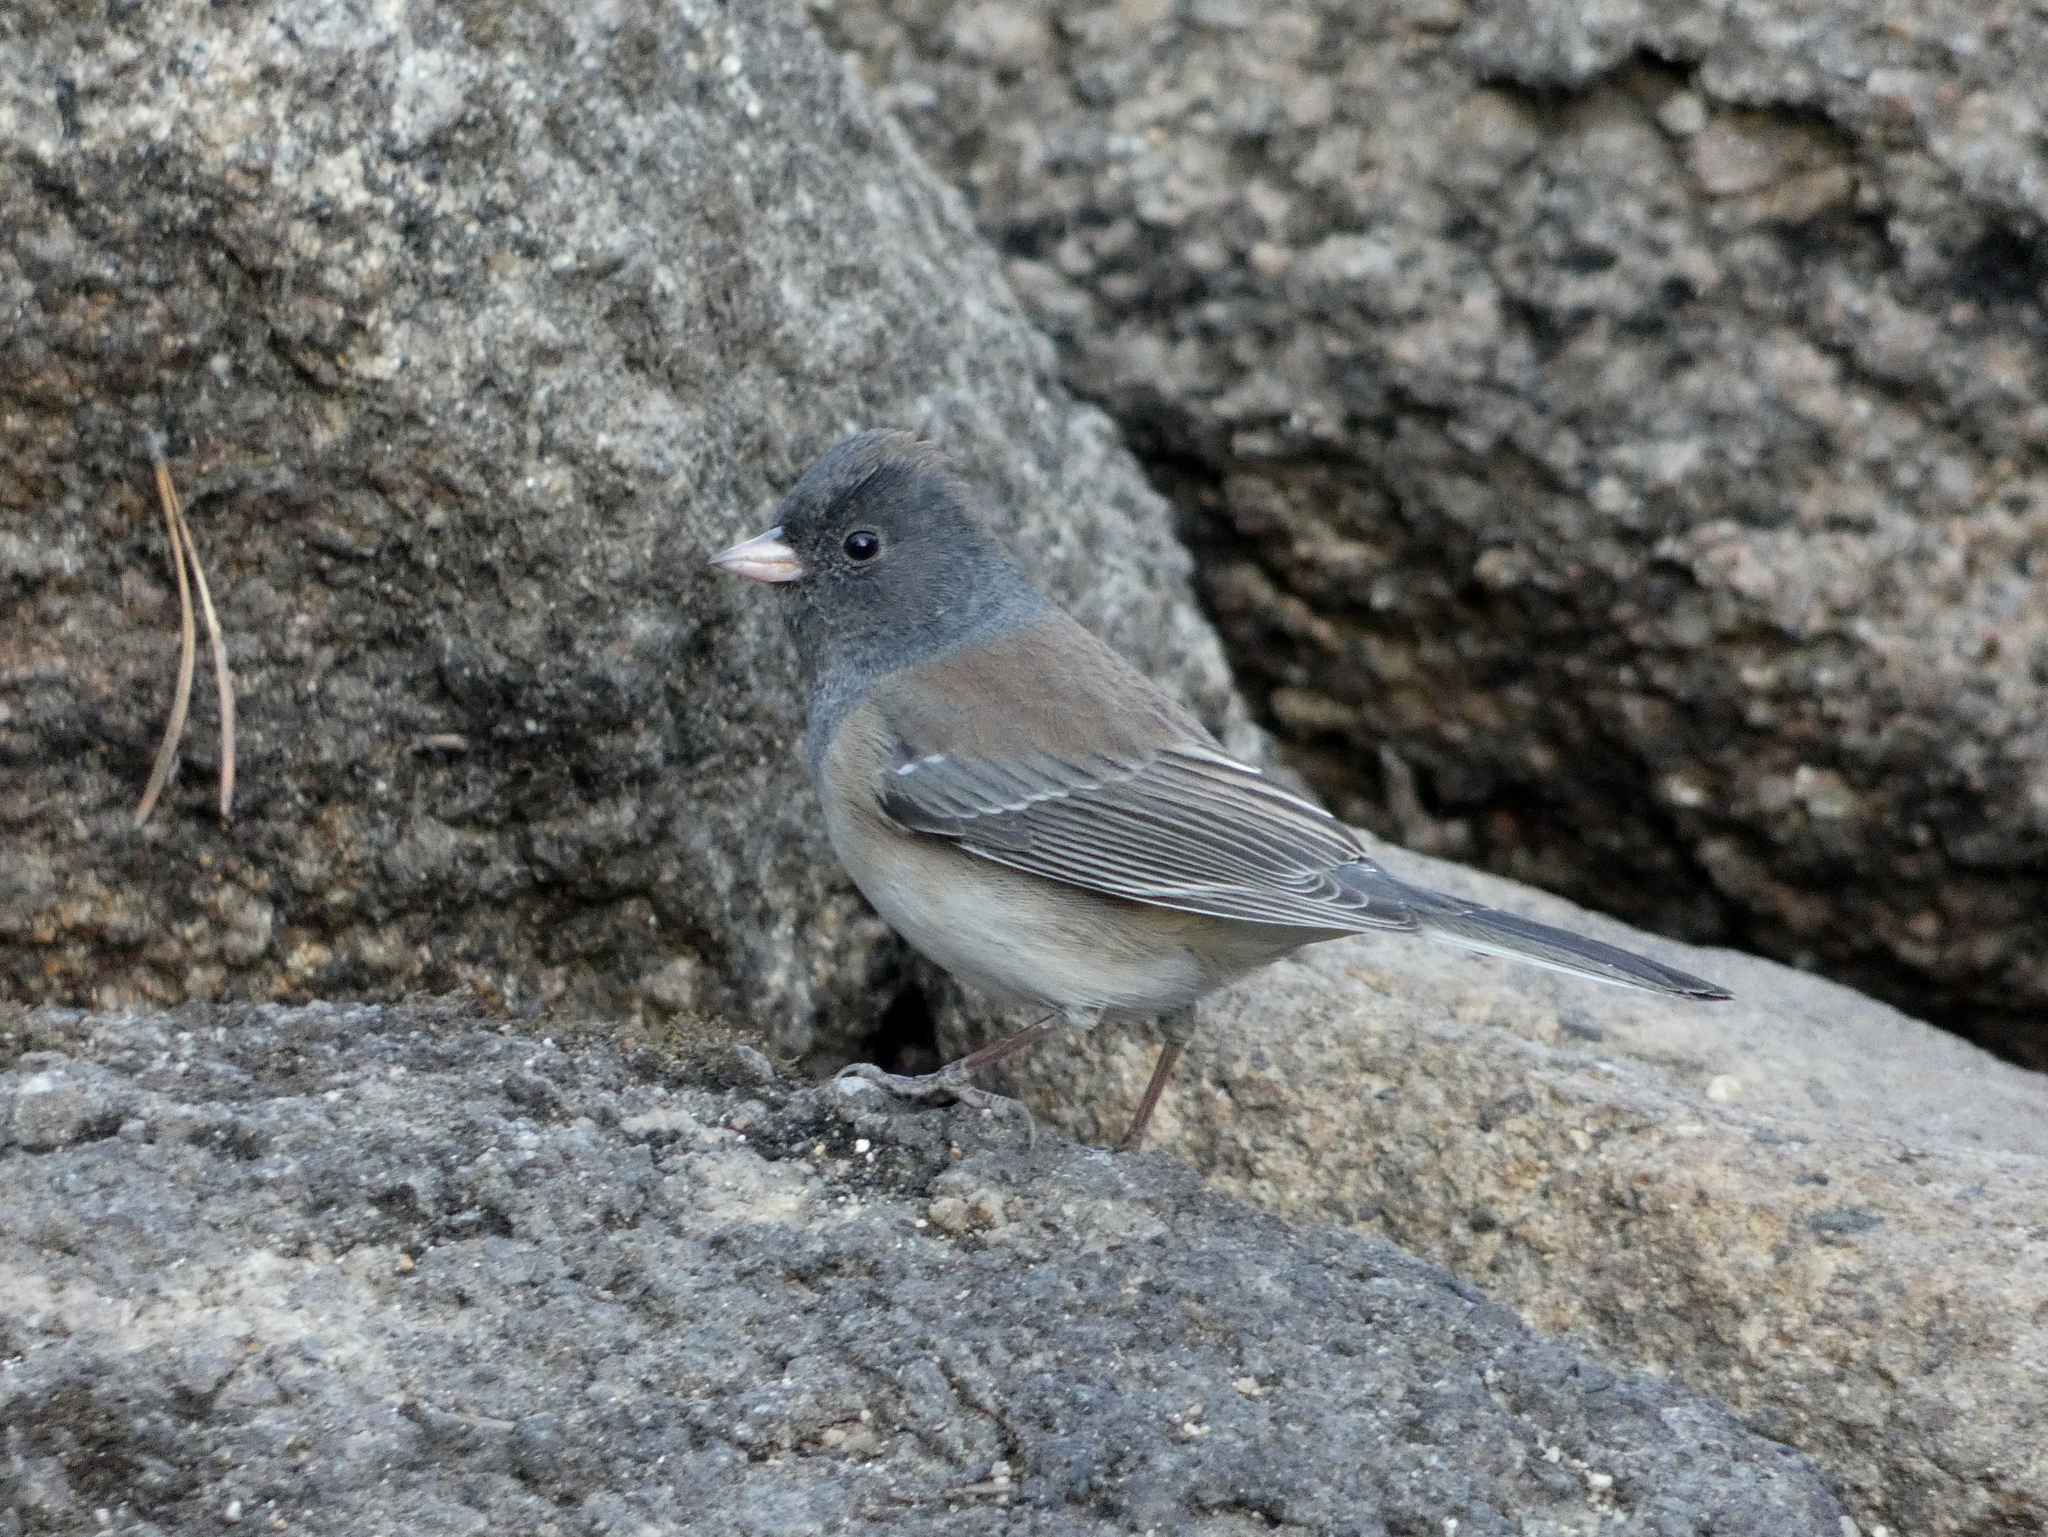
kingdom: Animalia
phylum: Chordata
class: Aves
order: Passeriformes
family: Passerellidae
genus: Junco
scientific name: Junco hyemalis
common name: Dark-eyed junco
